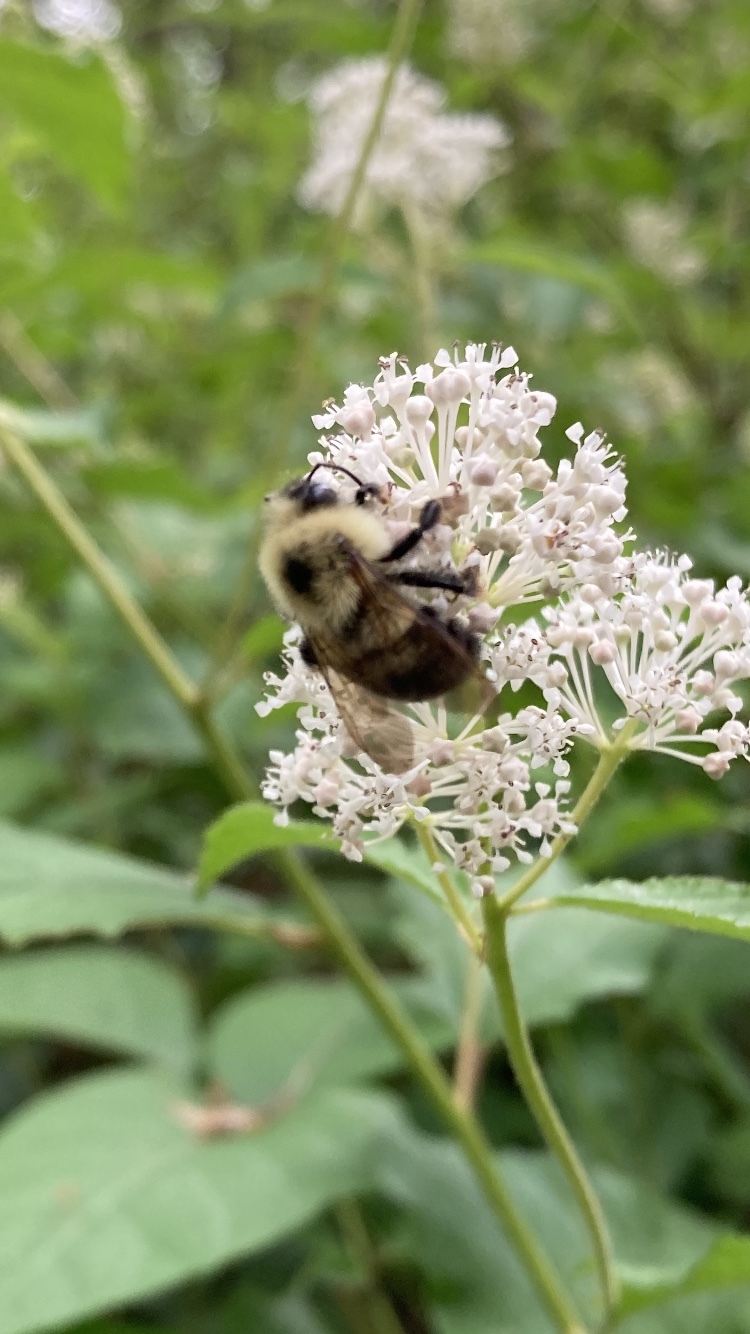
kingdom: Animalia
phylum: Arthropoda
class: Insecta
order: Hymenoptera
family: Apidae
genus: Bombus
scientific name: Bombus bimaculatus
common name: Two-spotted bumble bee
